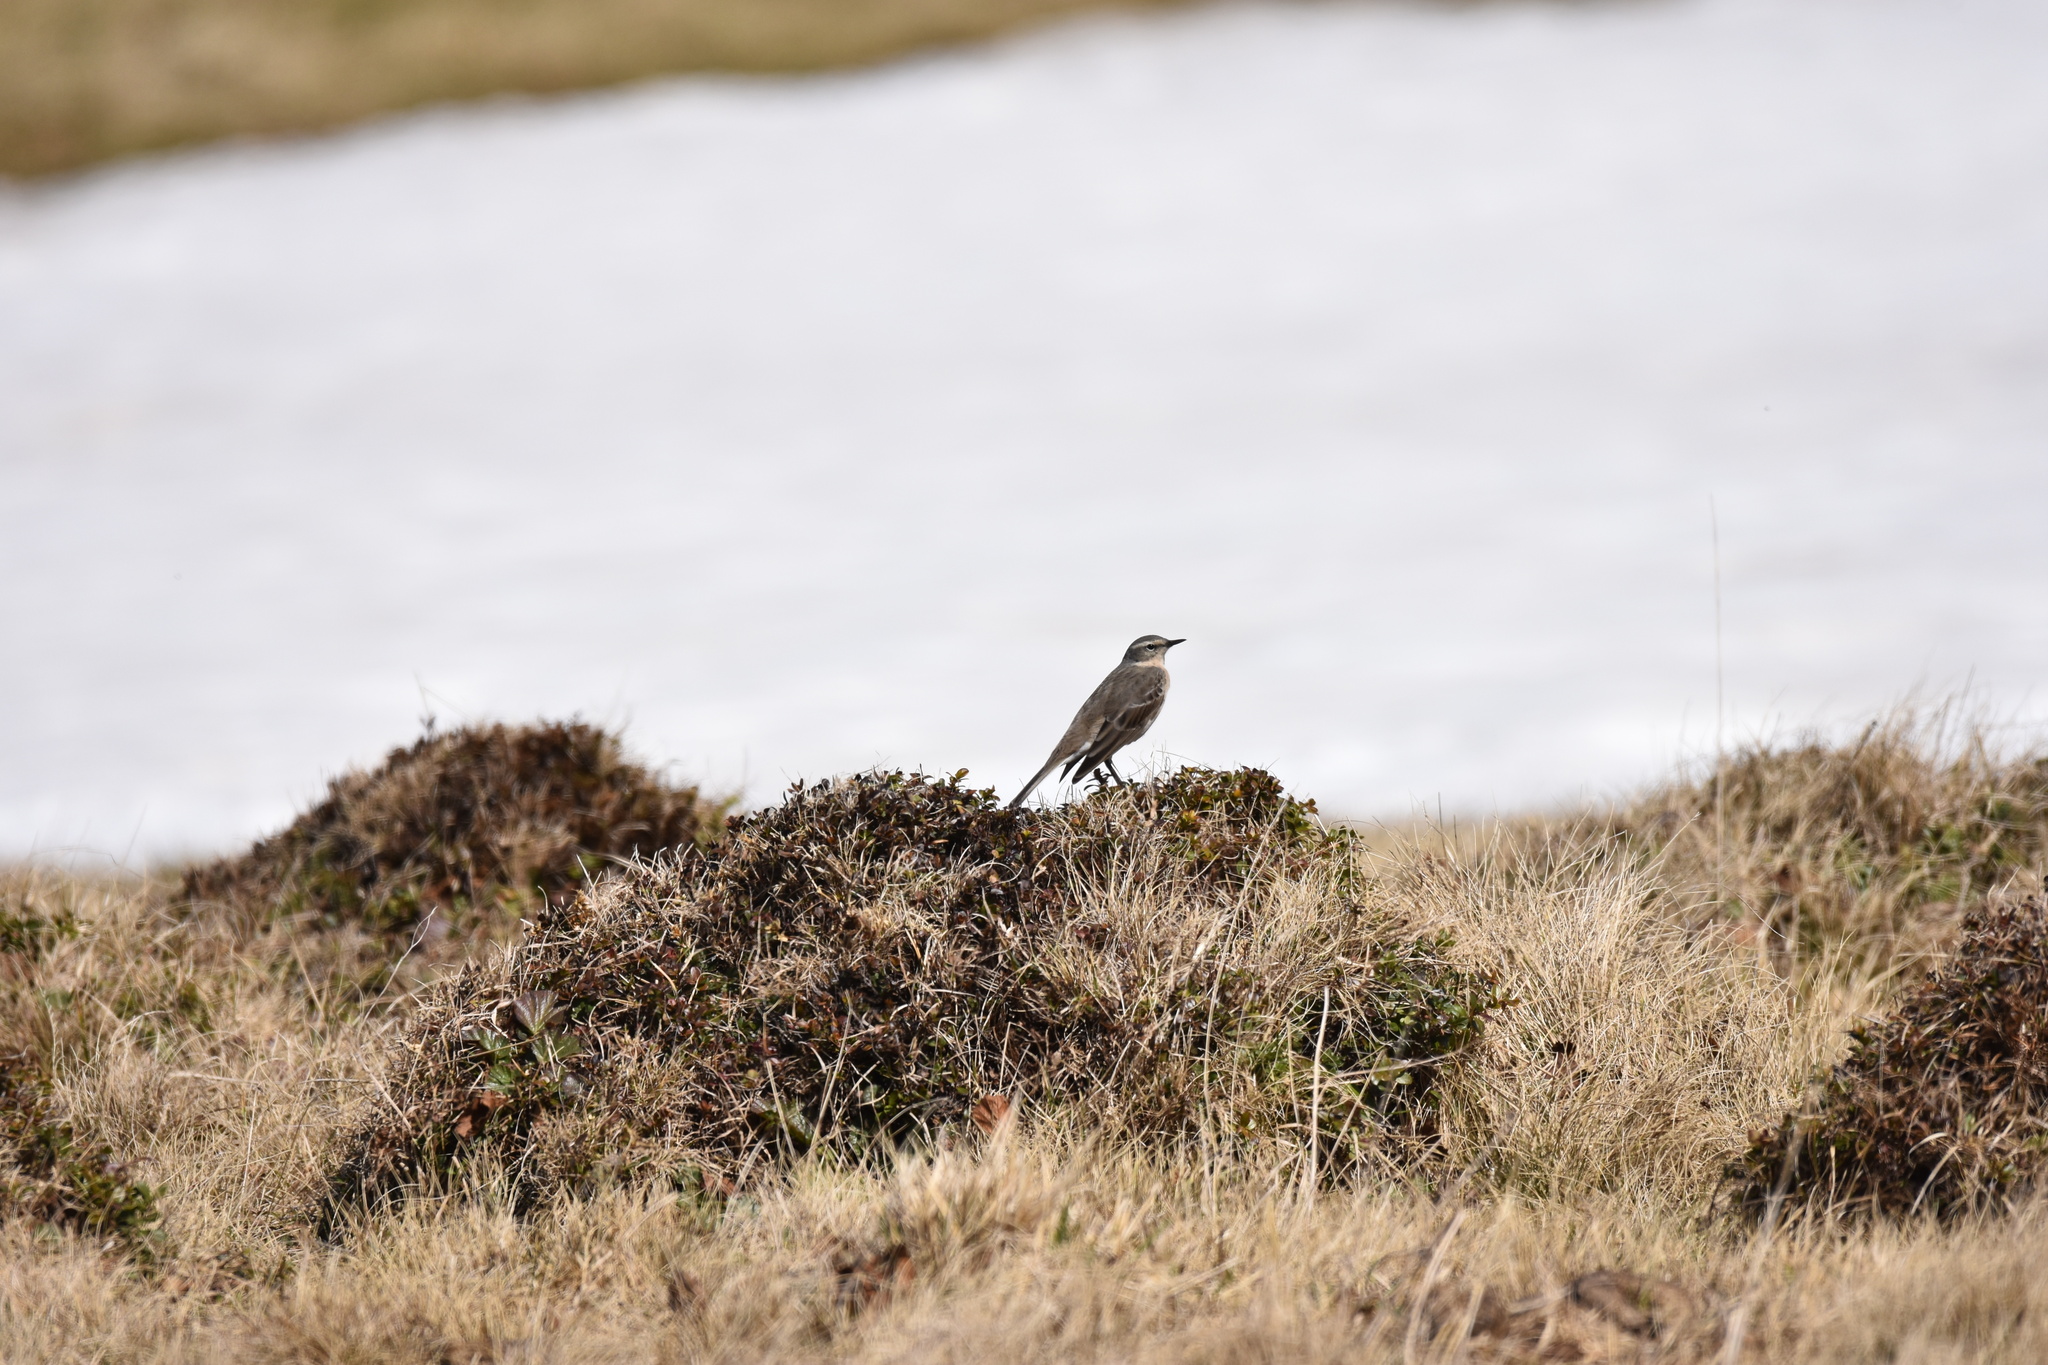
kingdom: Animalia
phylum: Chordata
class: Aves
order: Passeriformes
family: Motacillidae
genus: Anthus
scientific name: Anthus spinoletta
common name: Water pipit
